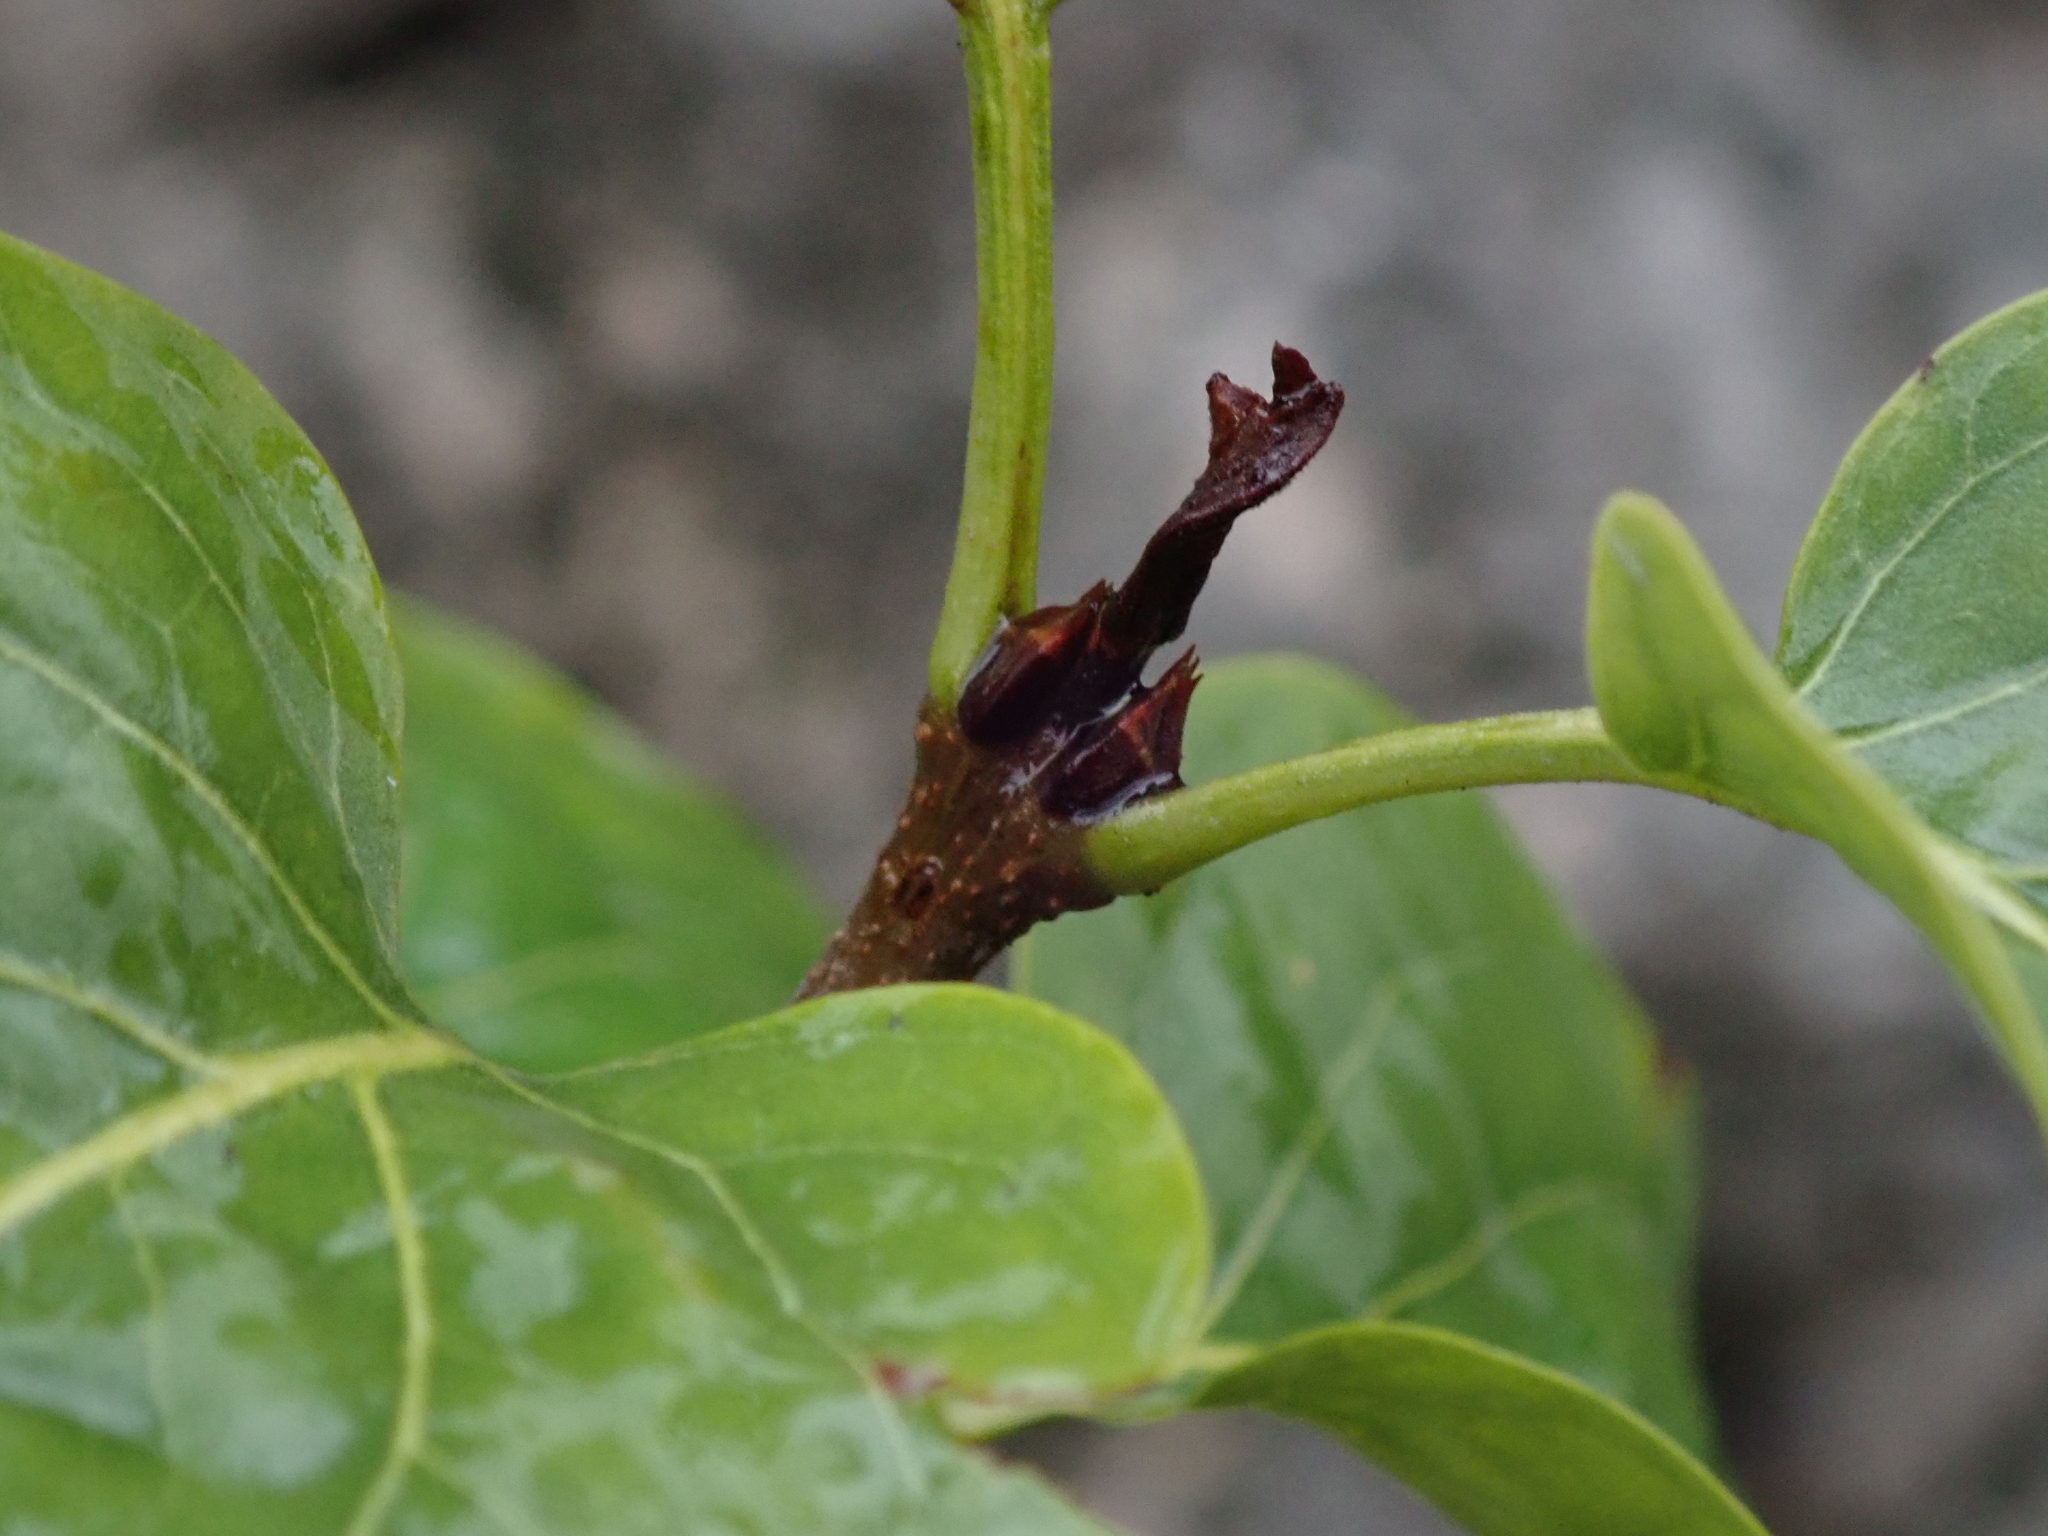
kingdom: Plantae
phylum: Tracheophyta
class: Magnoliopsida
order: Lamiales
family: Oleaceae
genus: Syringa
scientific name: Syringa vulgaris
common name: Common lilac
